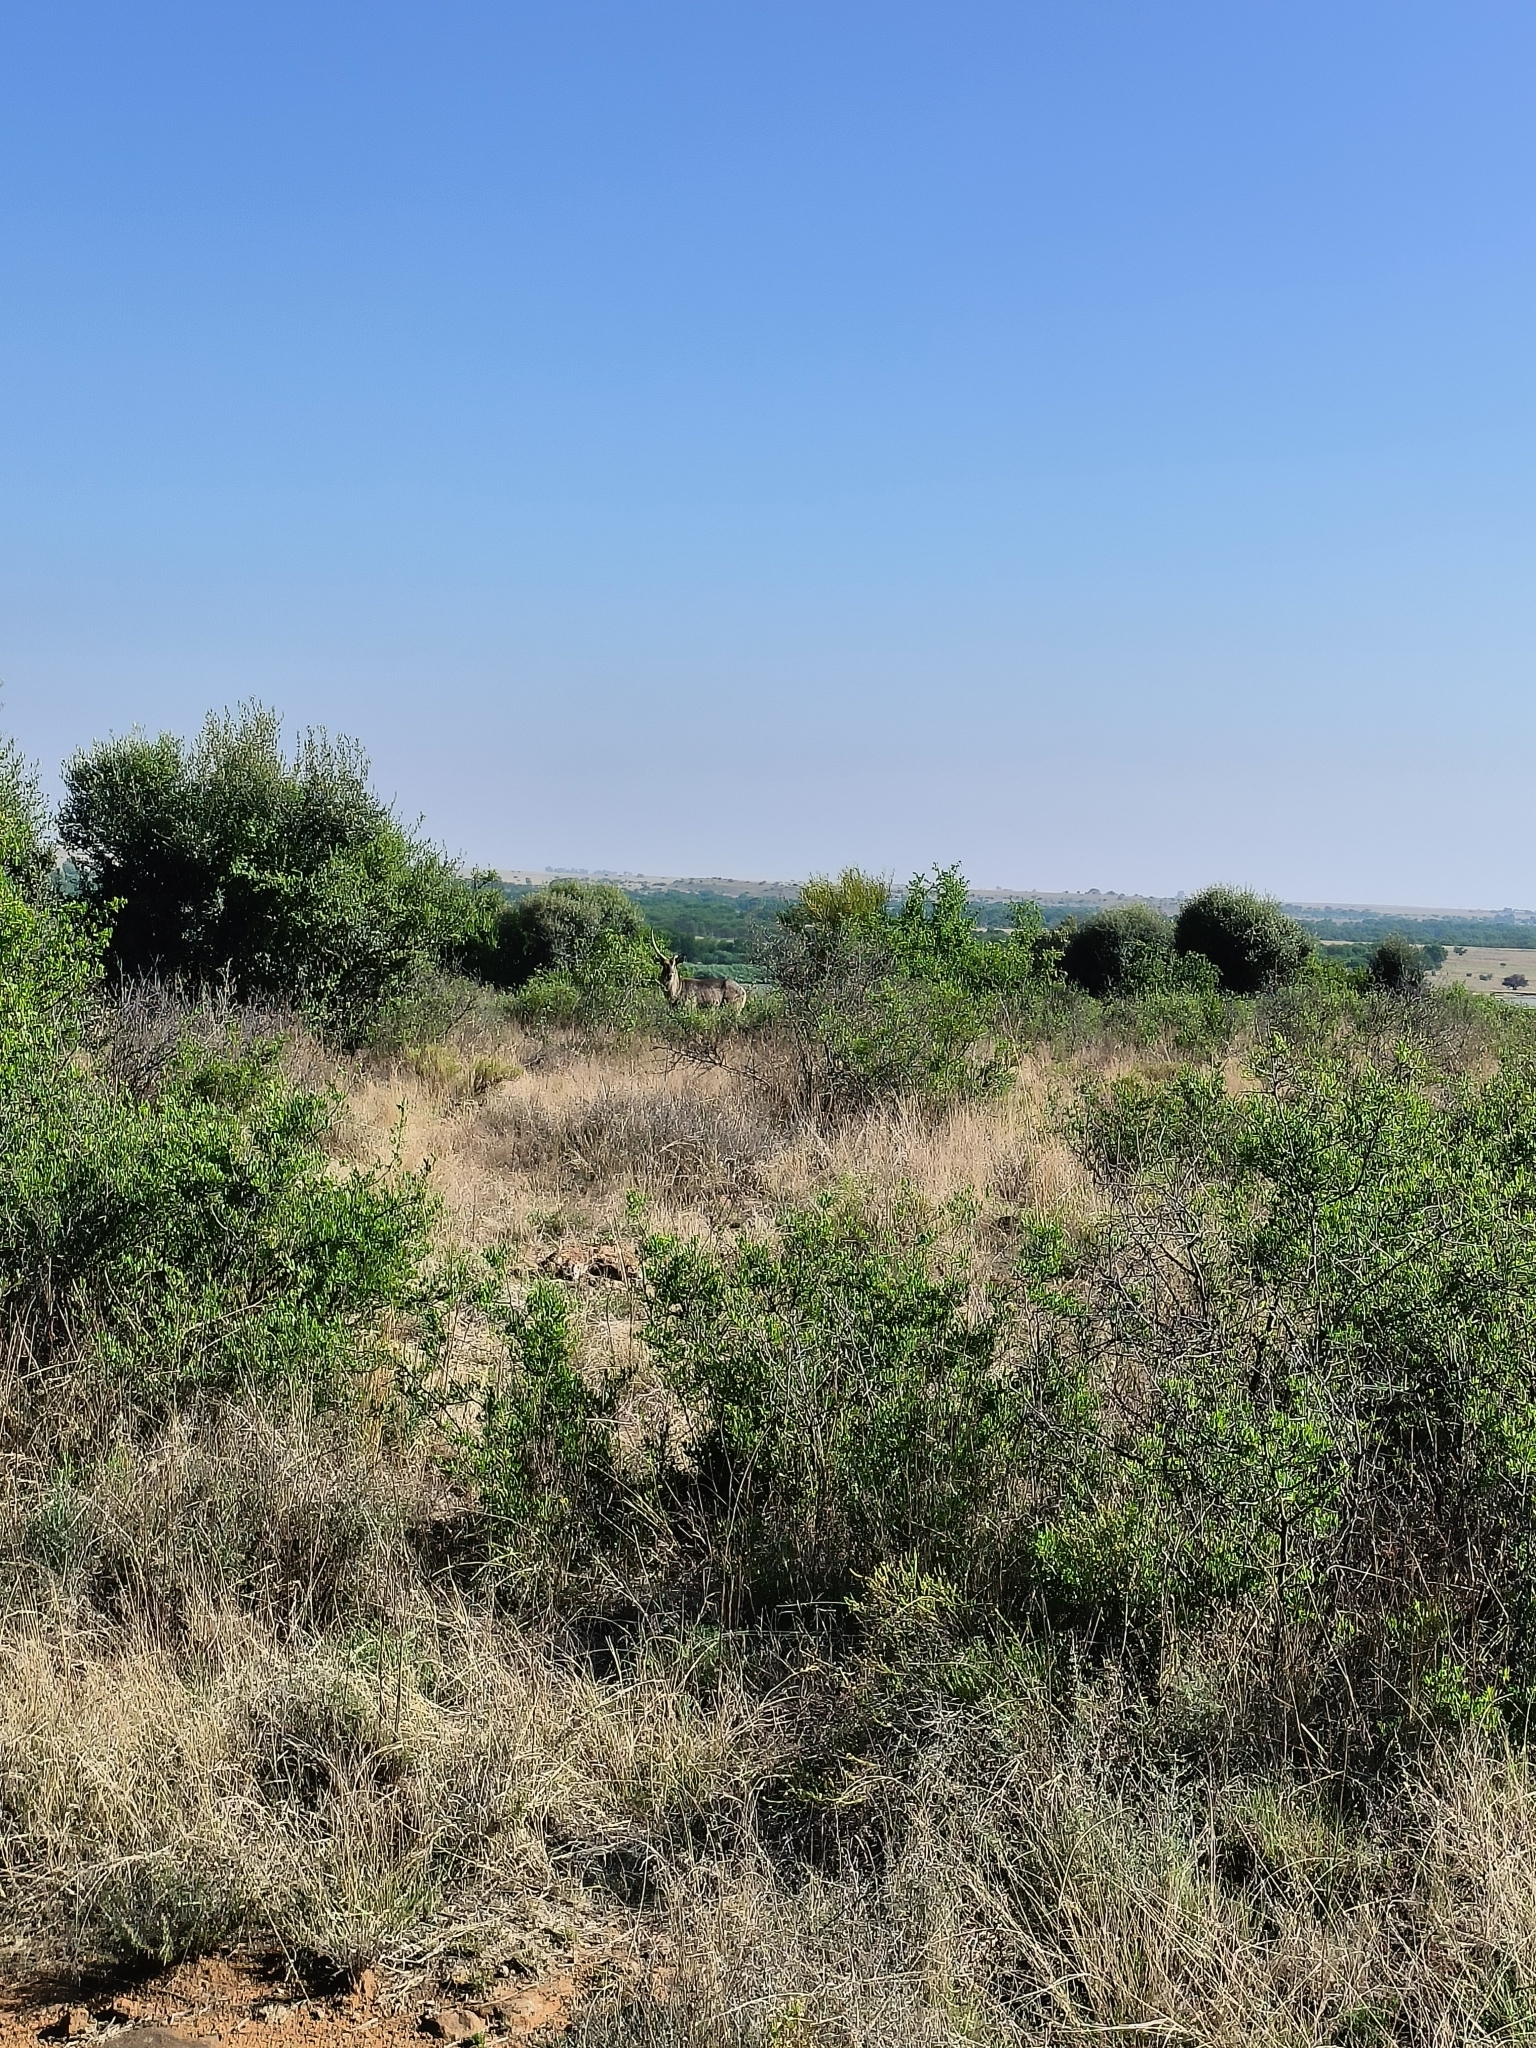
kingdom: Animalia
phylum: Chordata
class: Mammalia
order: Artiodactyla
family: Bovidae
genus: Kobus
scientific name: Kobus ellipsiprymnus
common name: Waterbuck
